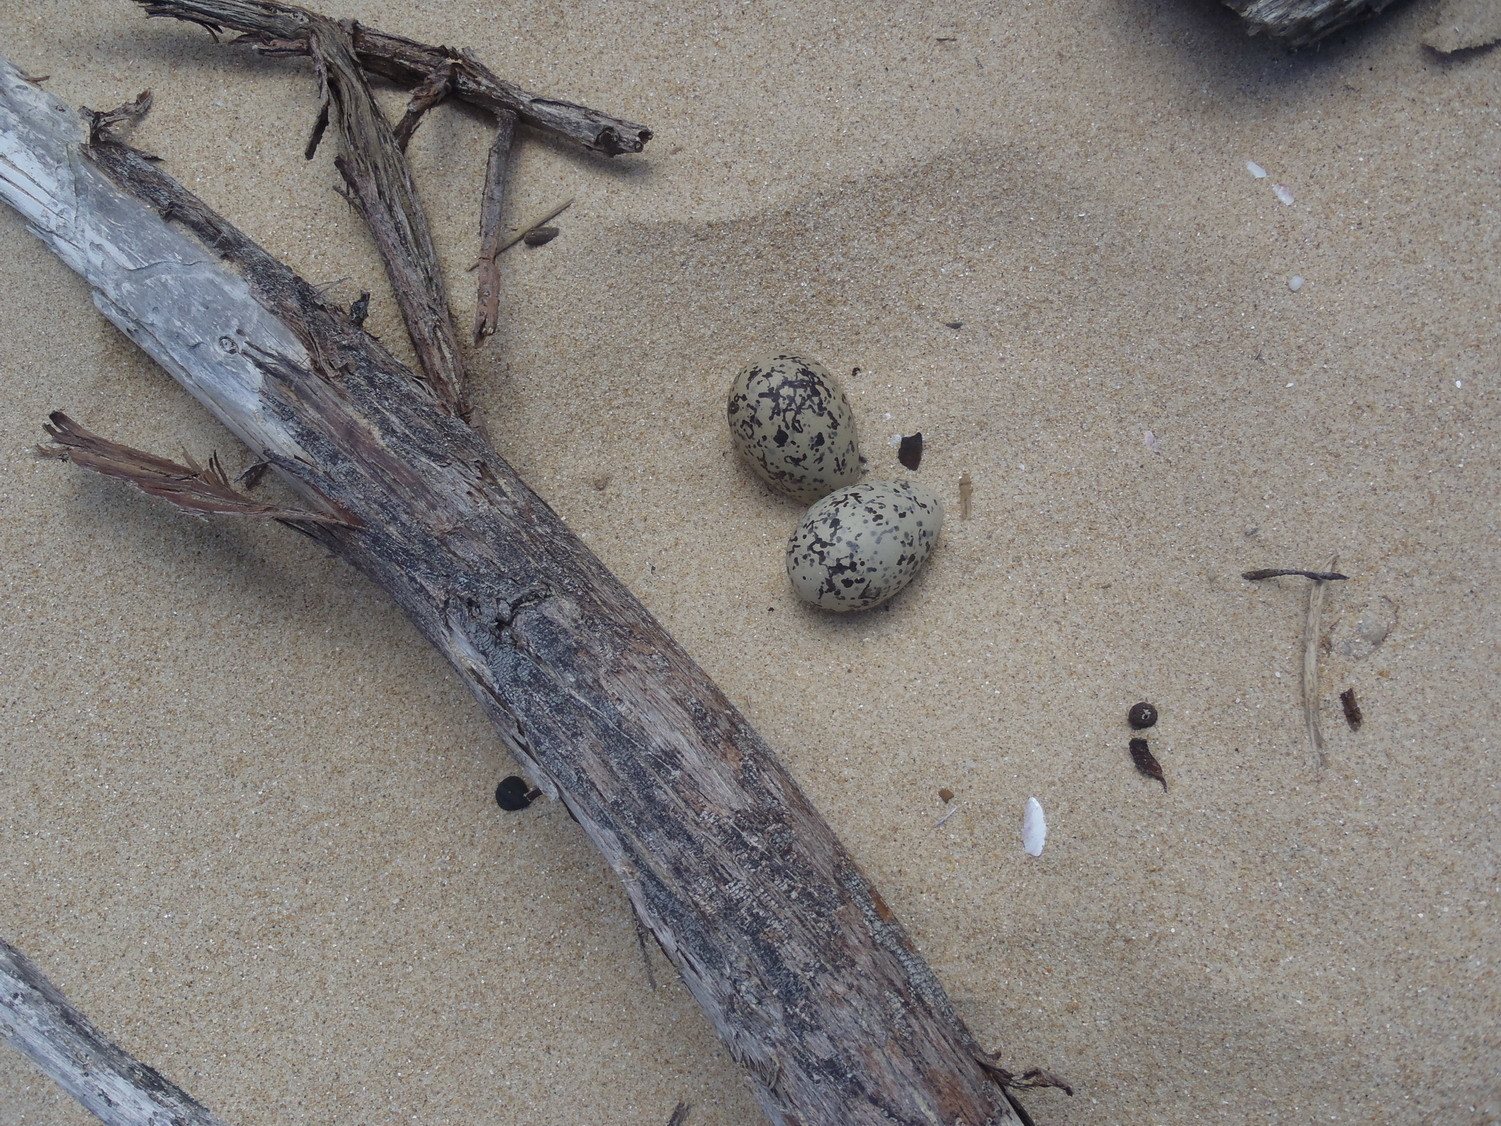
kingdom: Animalia
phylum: Chordata
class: Aves
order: Charadriiformes
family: Haematopodidae
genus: Haematopus
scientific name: Haematopus moquini
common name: African oystercatcher
